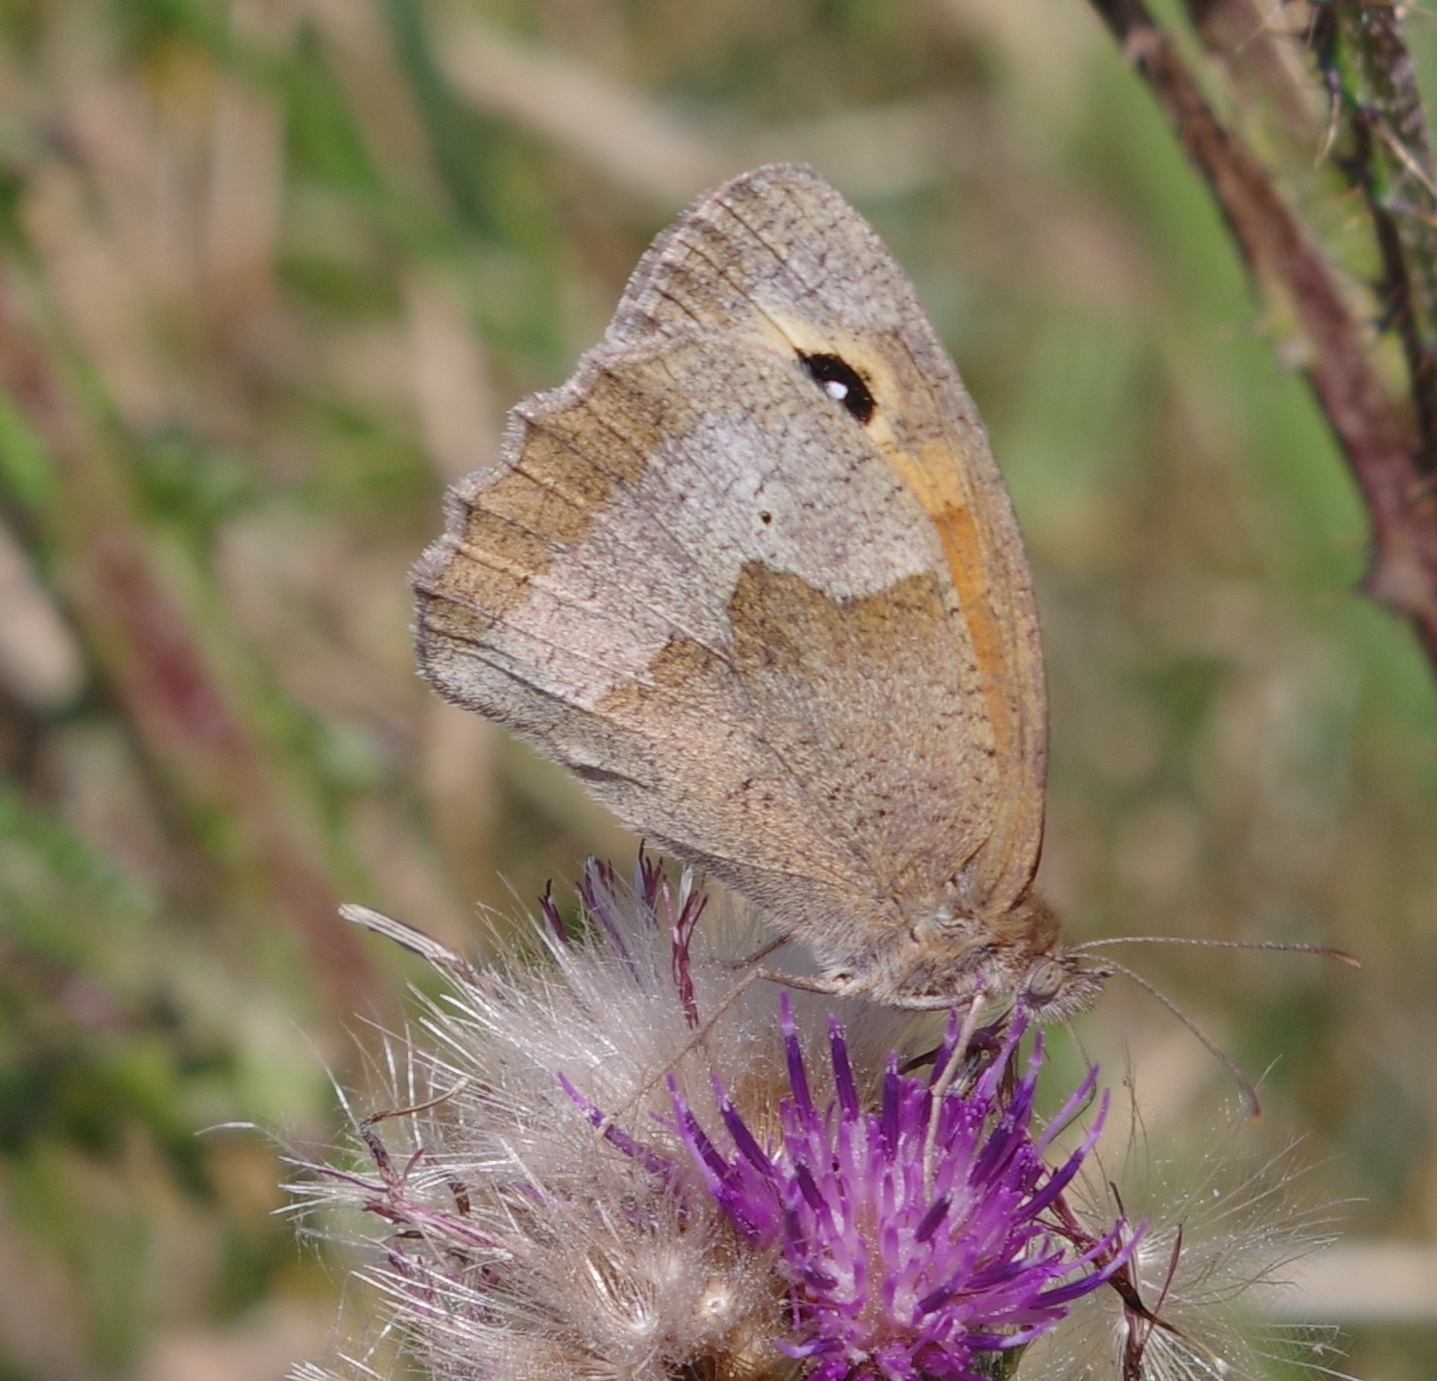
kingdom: Animalia
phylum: Arthropoda
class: Insecta
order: Lepidoptera
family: Nymphalidae
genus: Maniola
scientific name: Maniola jurtina
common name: Meadow brown
